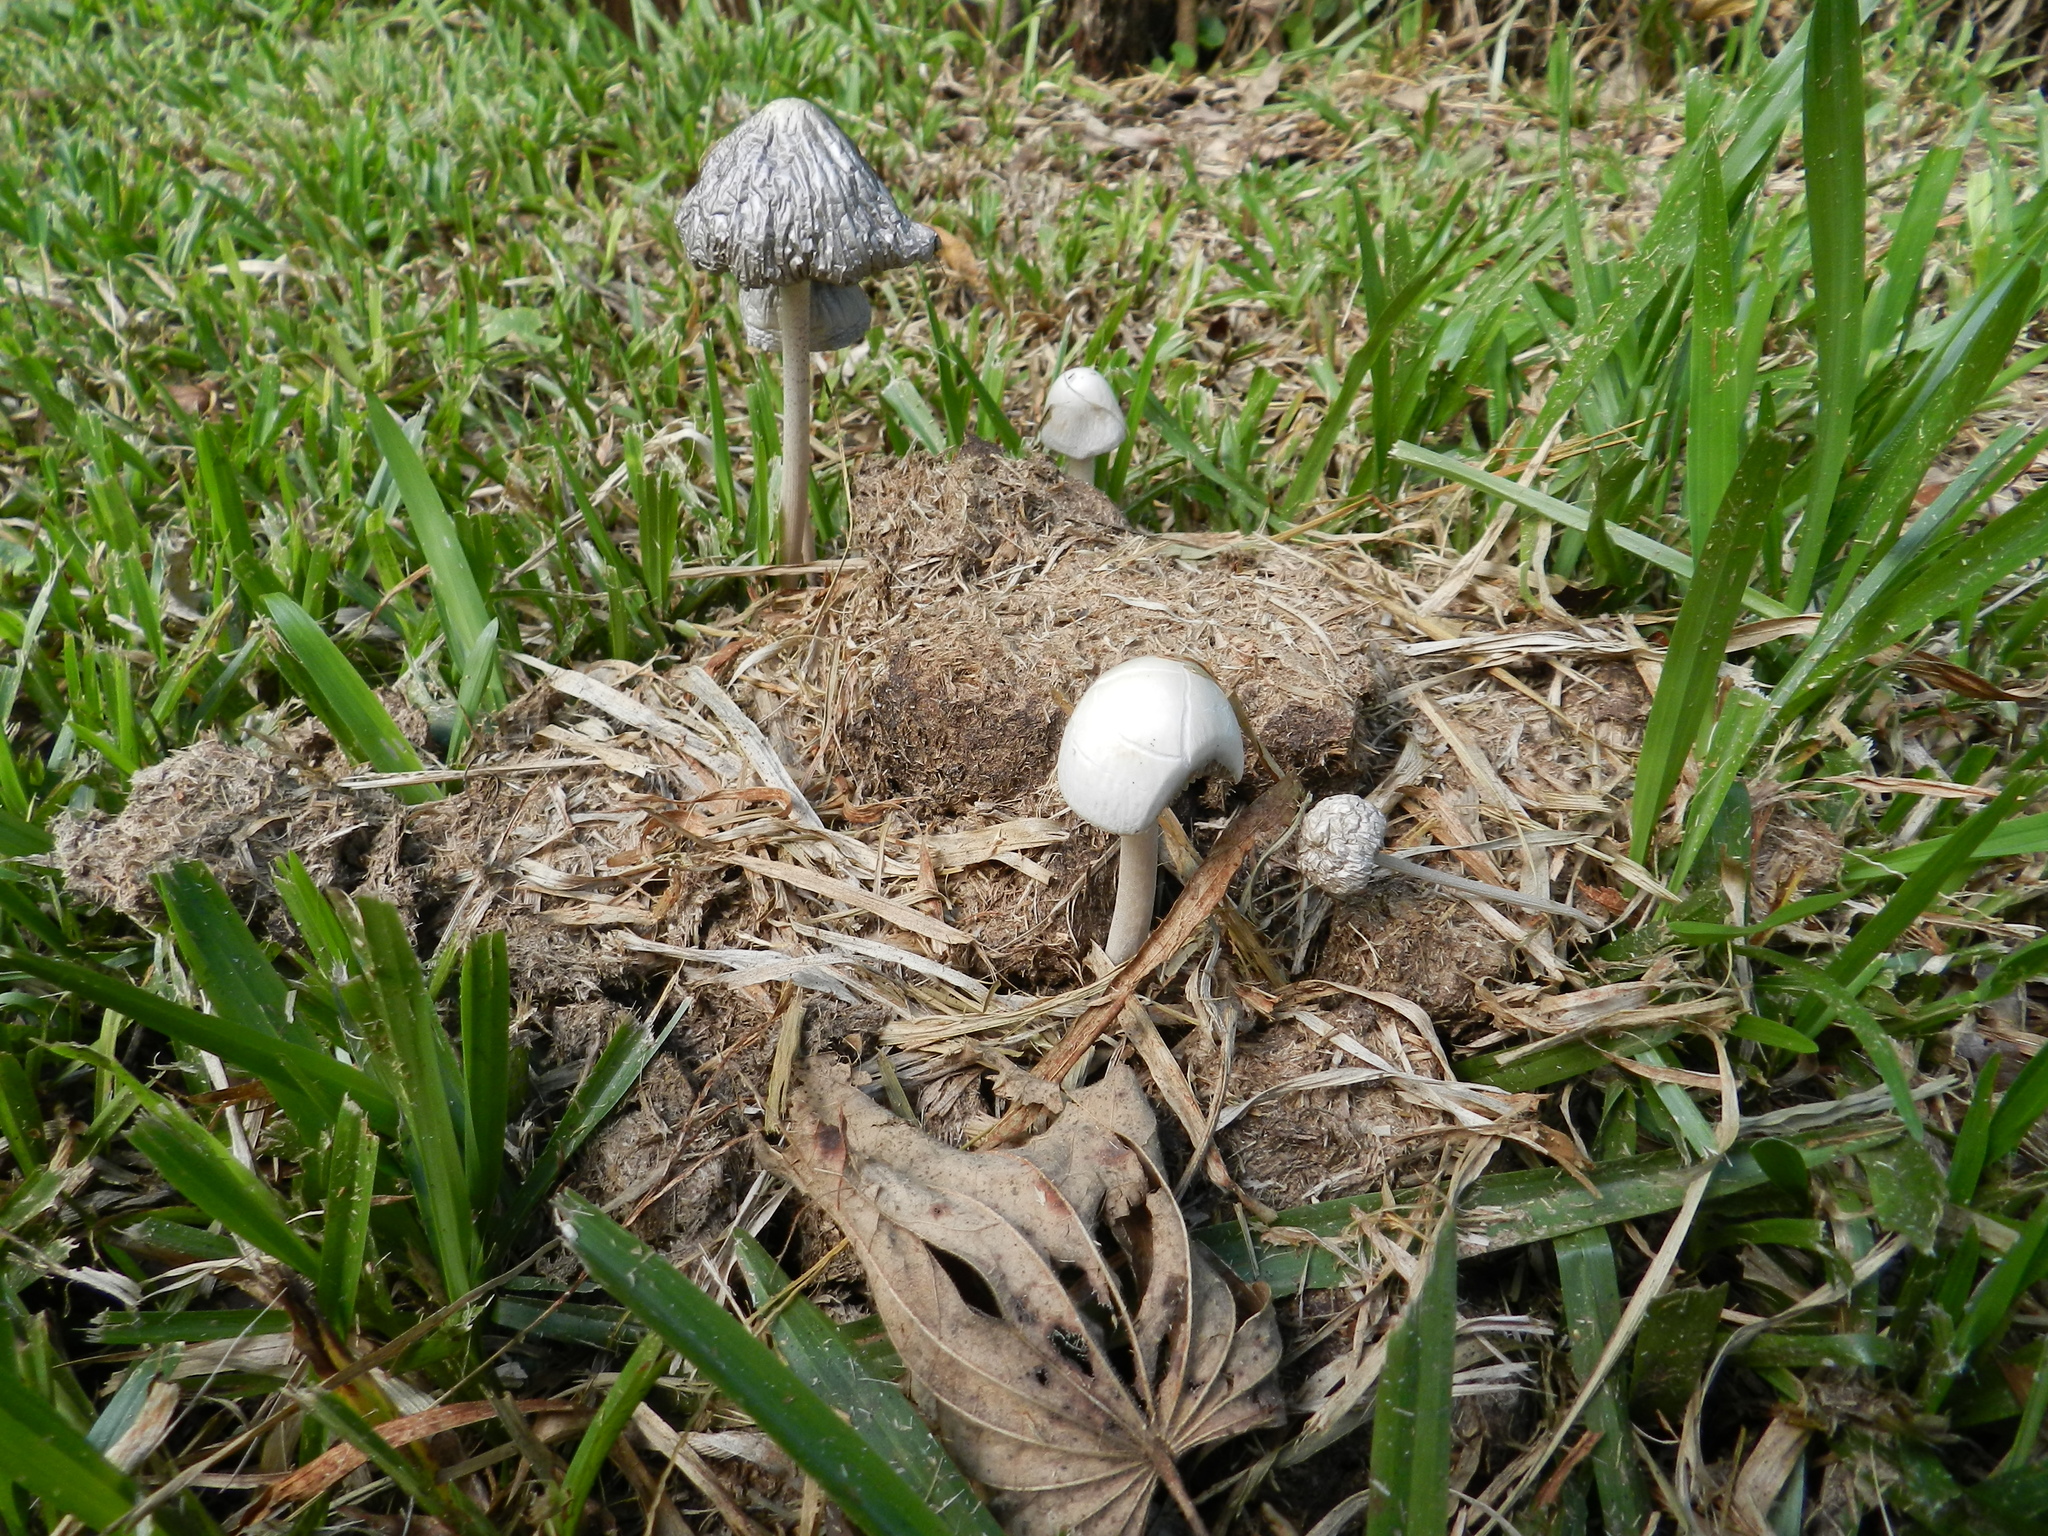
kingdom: Fungi
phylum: Basidiomycota
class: Agaricomycetes
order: Agaricales
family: Bolbitiaceae
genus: Panaeolus
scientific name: Panaeolus antillarum
